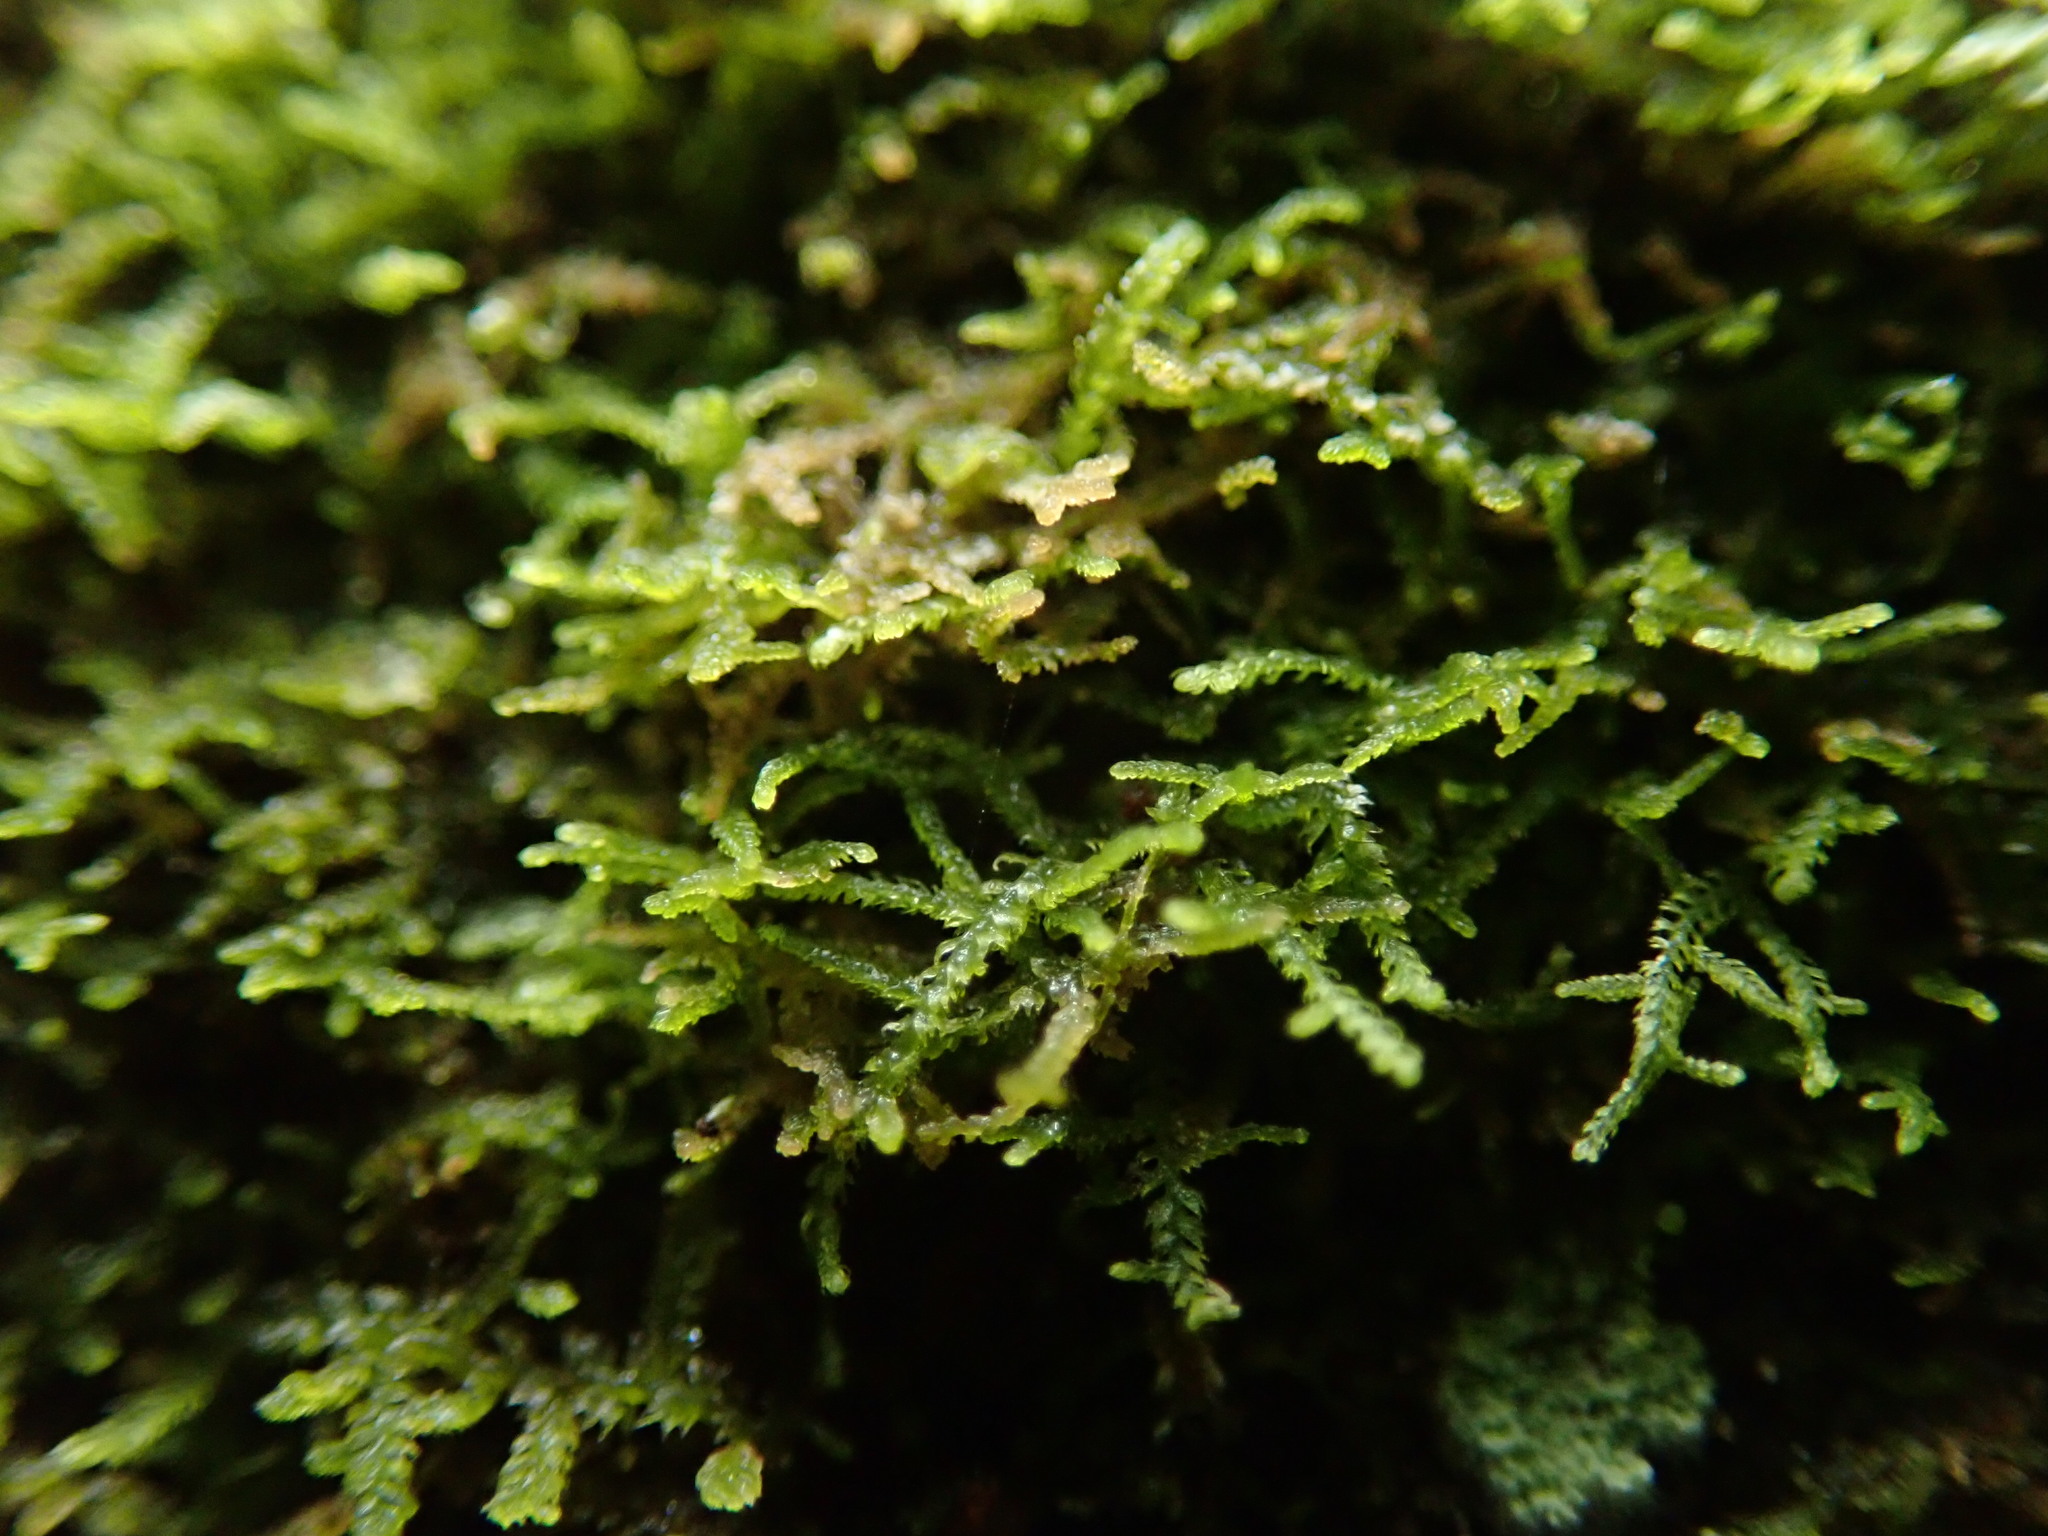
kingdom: Plantae
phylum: Marchantiophyta
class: Jungermanniopsida
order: Jungermanniales
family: Lepidoziaceae
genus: Lepidozia
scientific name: Lepidozia reptans
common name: Creeping fingerwort
